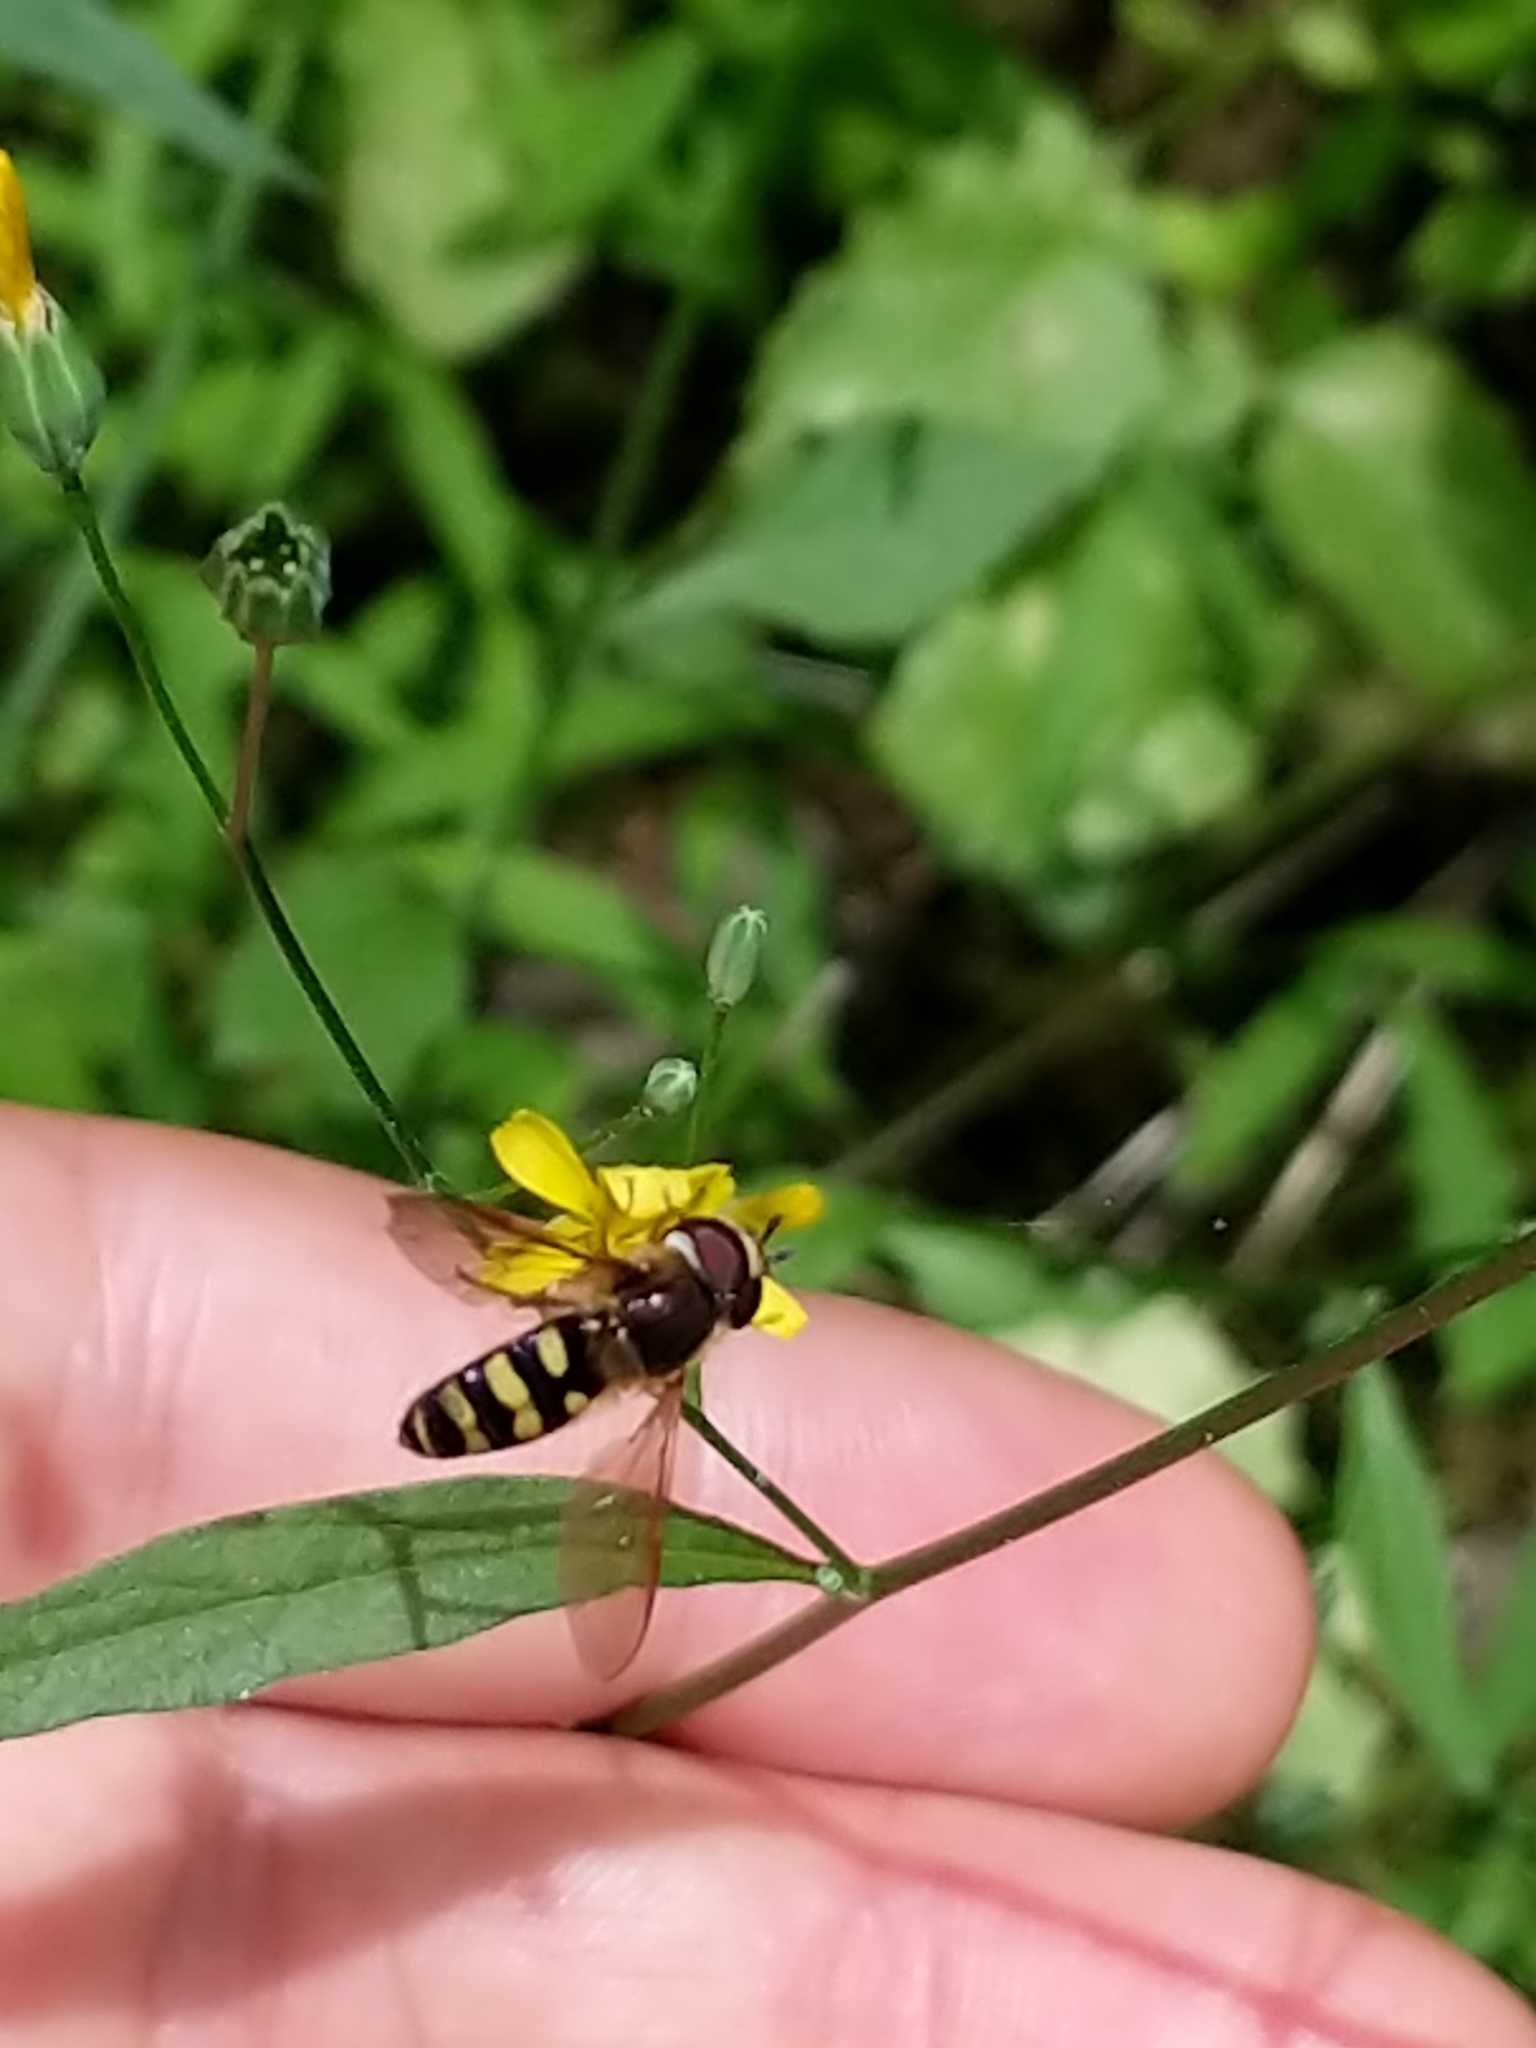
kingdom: Animalia
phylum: Arthropoda
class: Insecta
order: Diptera
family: Syrphidae
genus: Eupeodes
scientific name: Eupeodes
